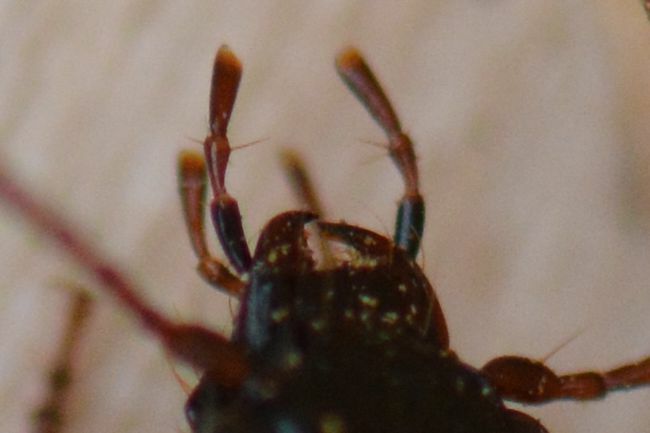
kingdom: Animalia
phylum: Arthropoda
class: Insecta
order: Coleoptera
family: Carabidae
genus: Nebria
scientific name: Nebria salina
